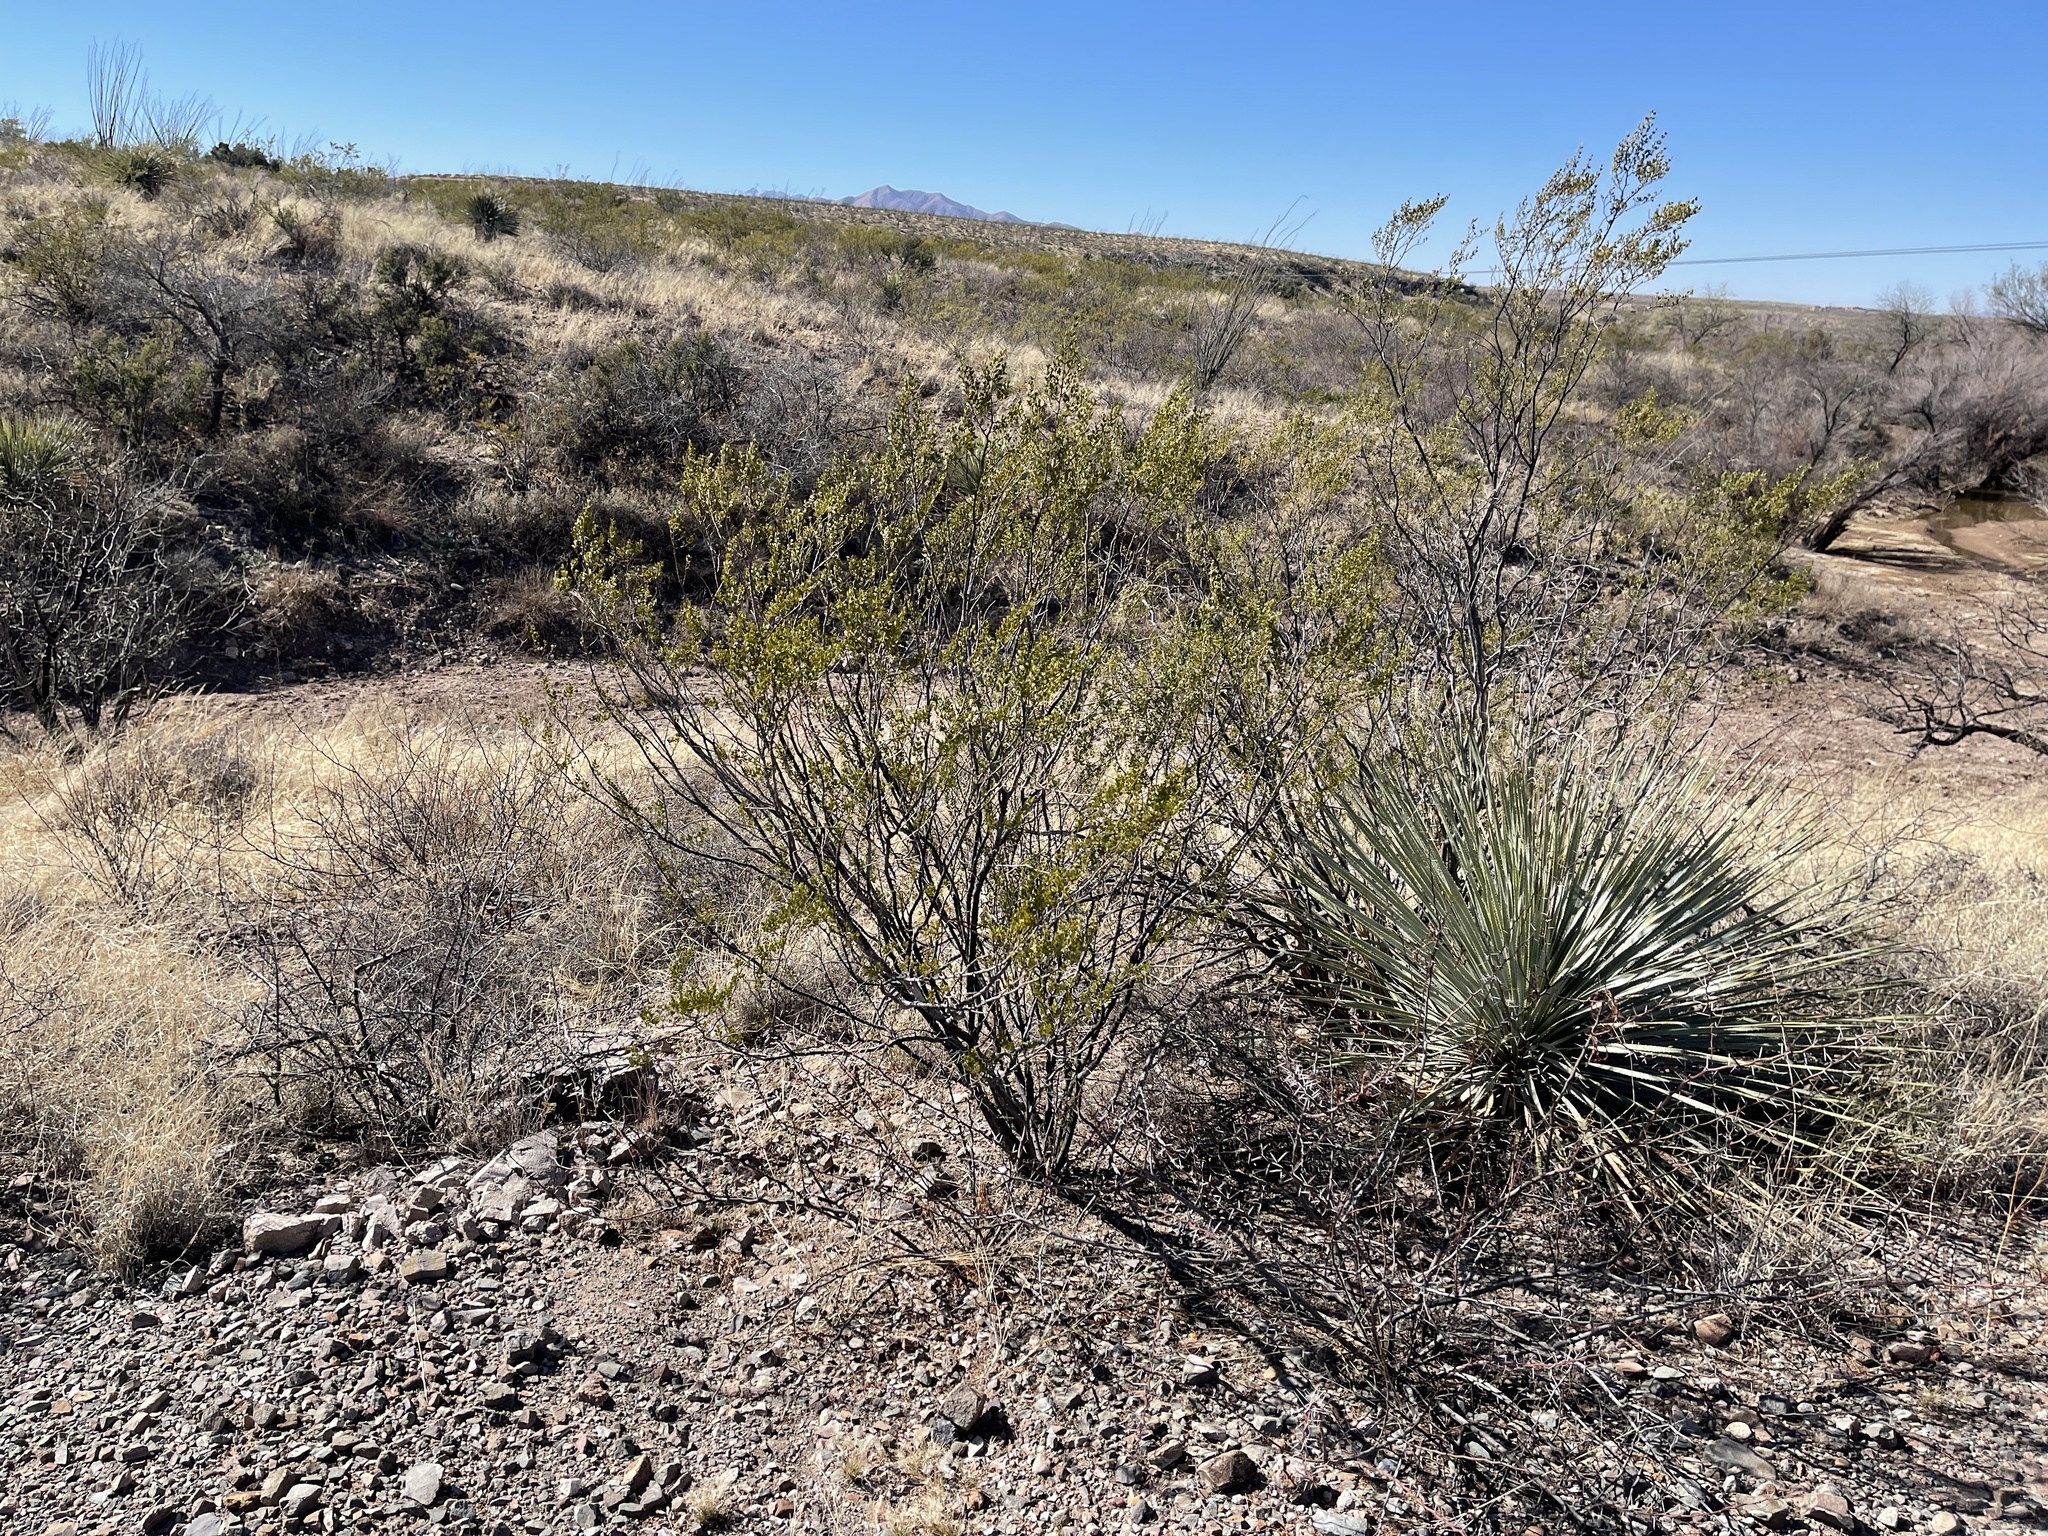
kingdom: Plantae
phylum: Tracheophyta
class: Magnoliopsida
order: Zygophyllales
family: Zygophyllaceae
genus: Larrea
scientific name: Larrea tridentata
